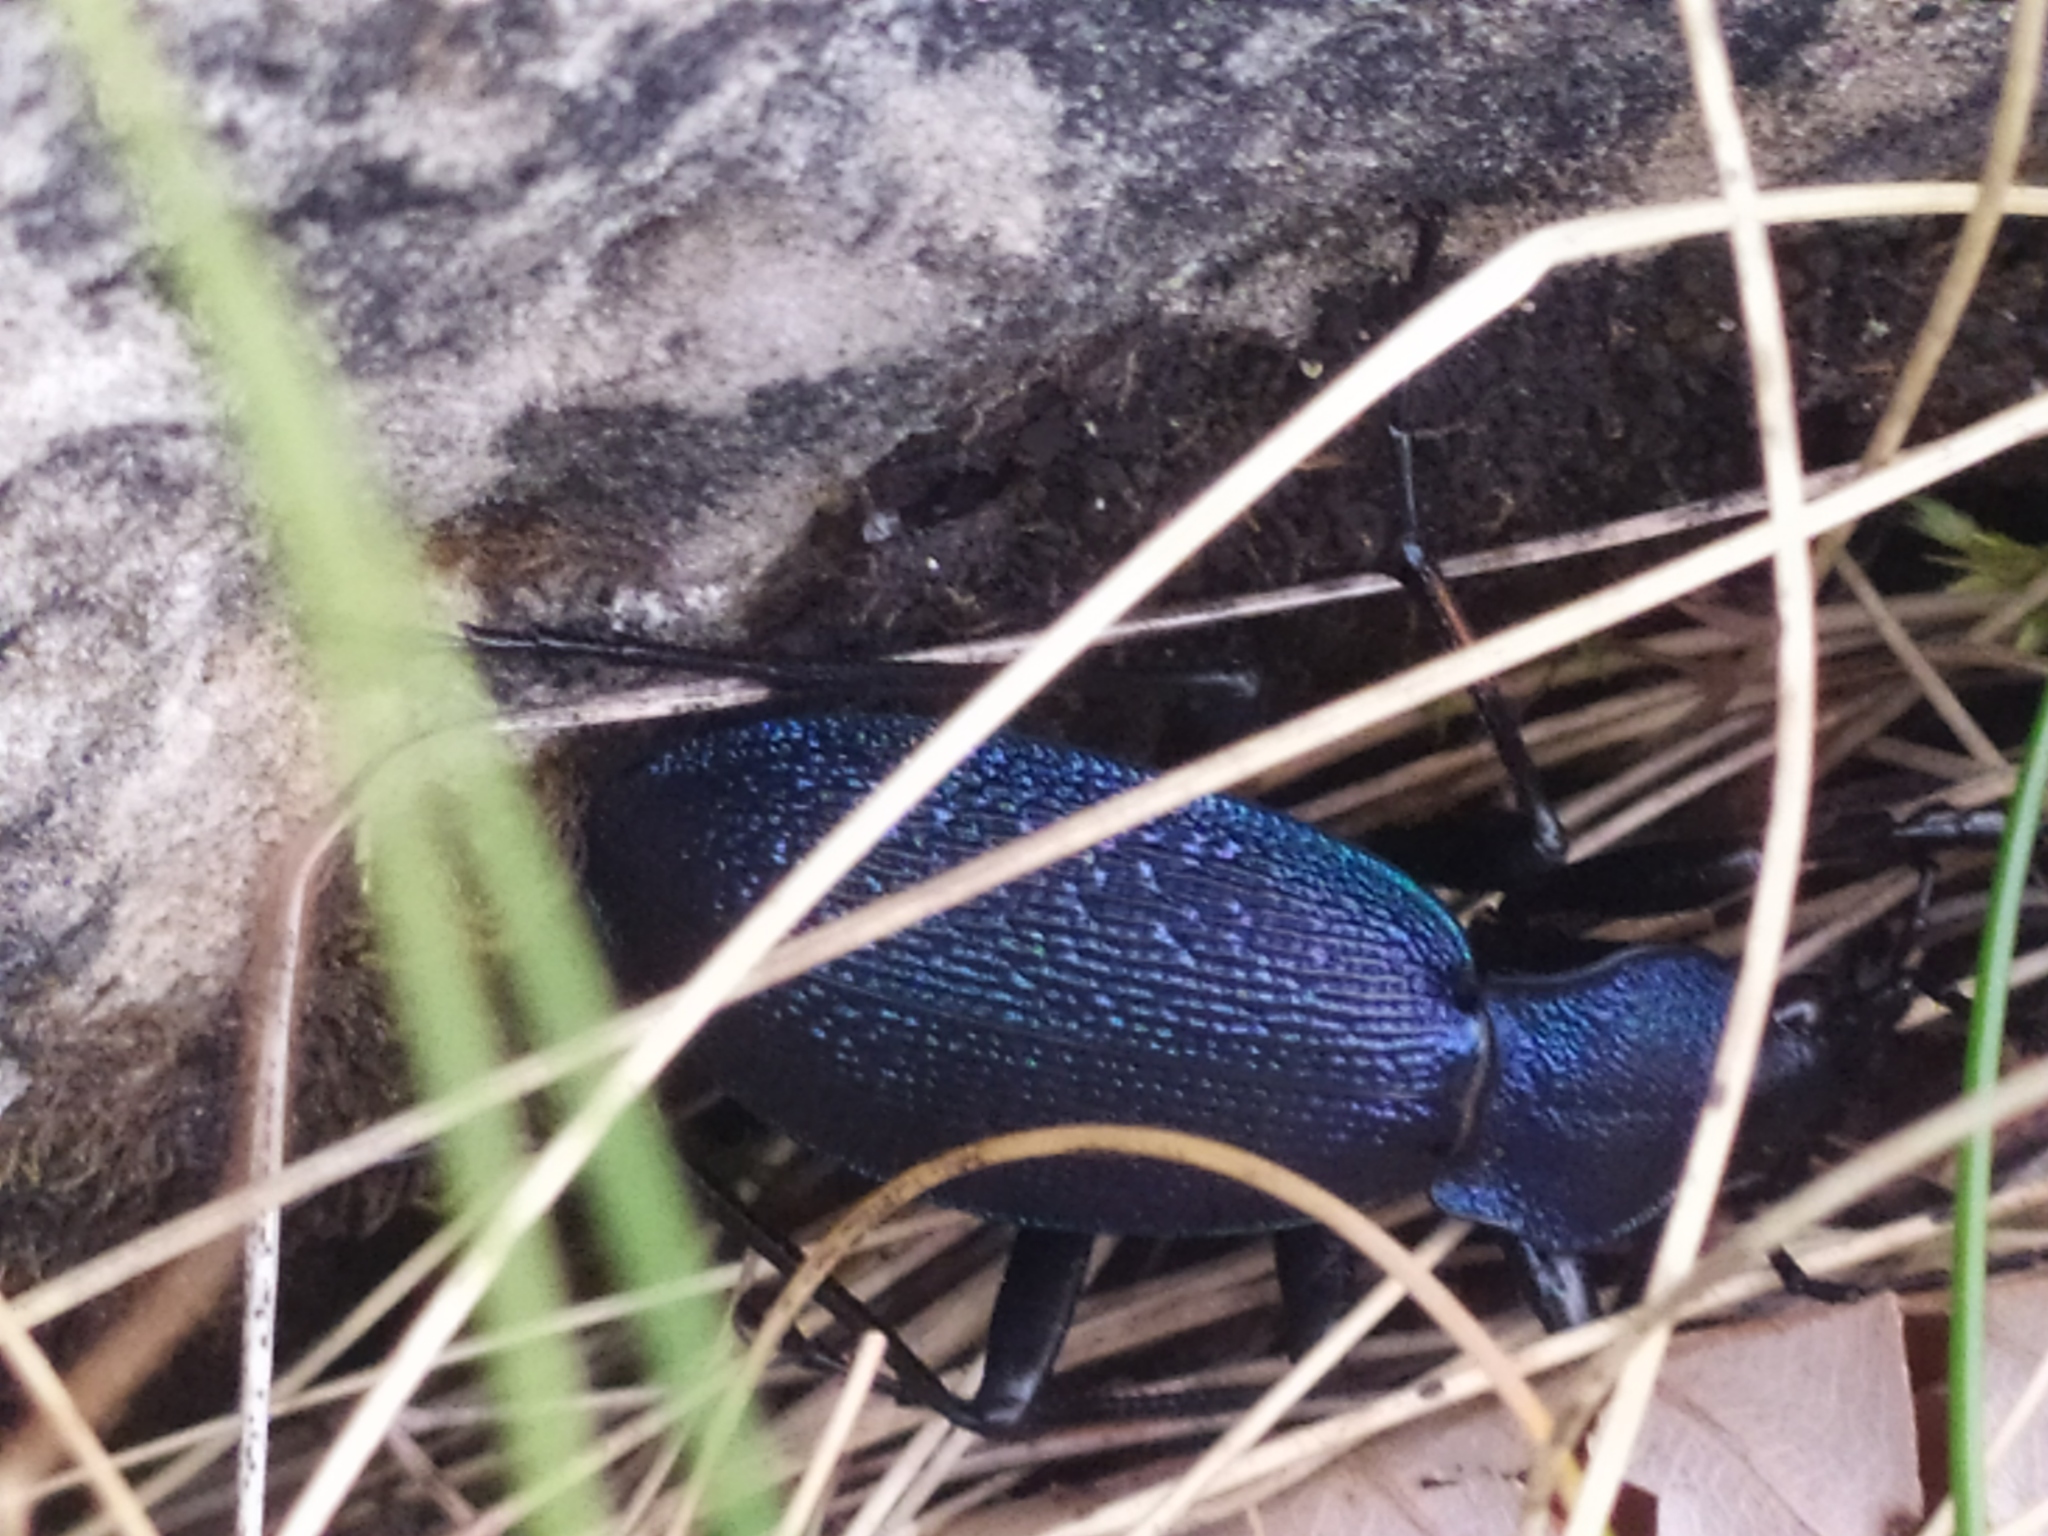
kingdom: Animalia
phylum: Arthropoda
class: Insecta
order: Coleoptera
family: Carabidae
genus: Carabus
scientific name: Carabus caelatus
